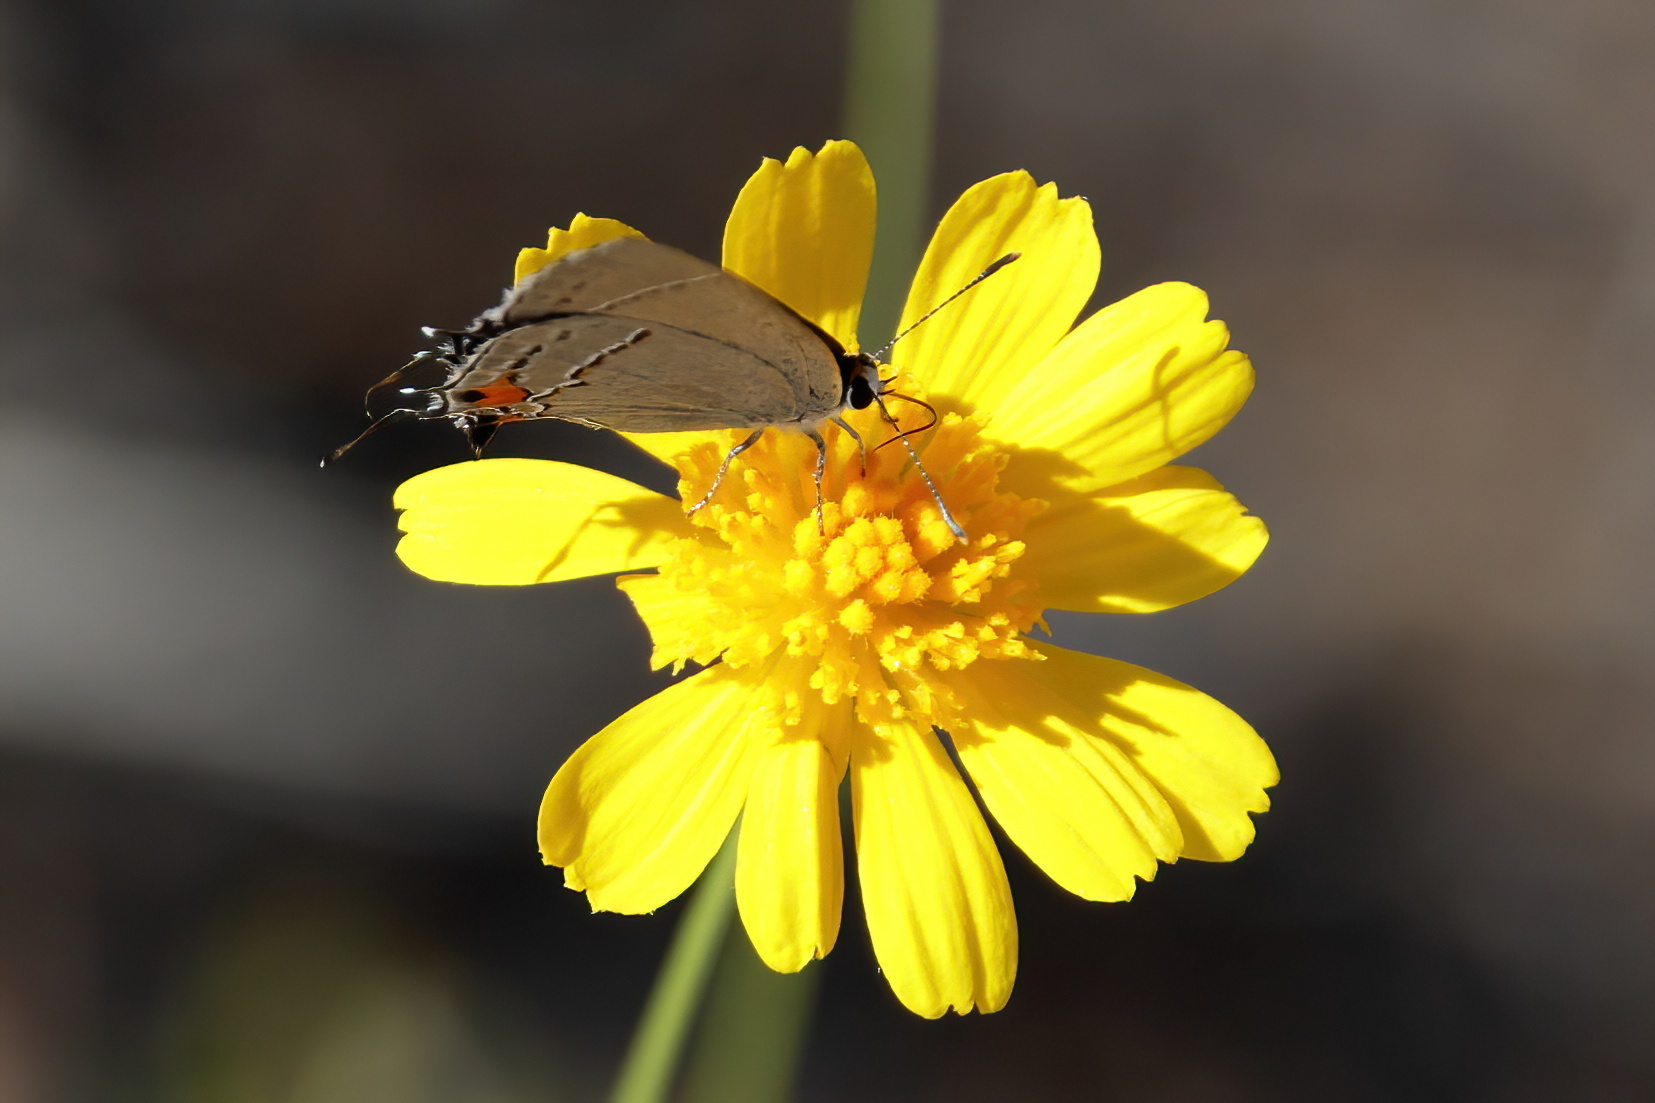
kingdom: Animalia
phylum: Arthropoda
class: Insecta
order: Lepidoptera
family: Lycaenidae
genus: Strymon
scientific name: Strymon melinus
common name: Gray hairstreak
